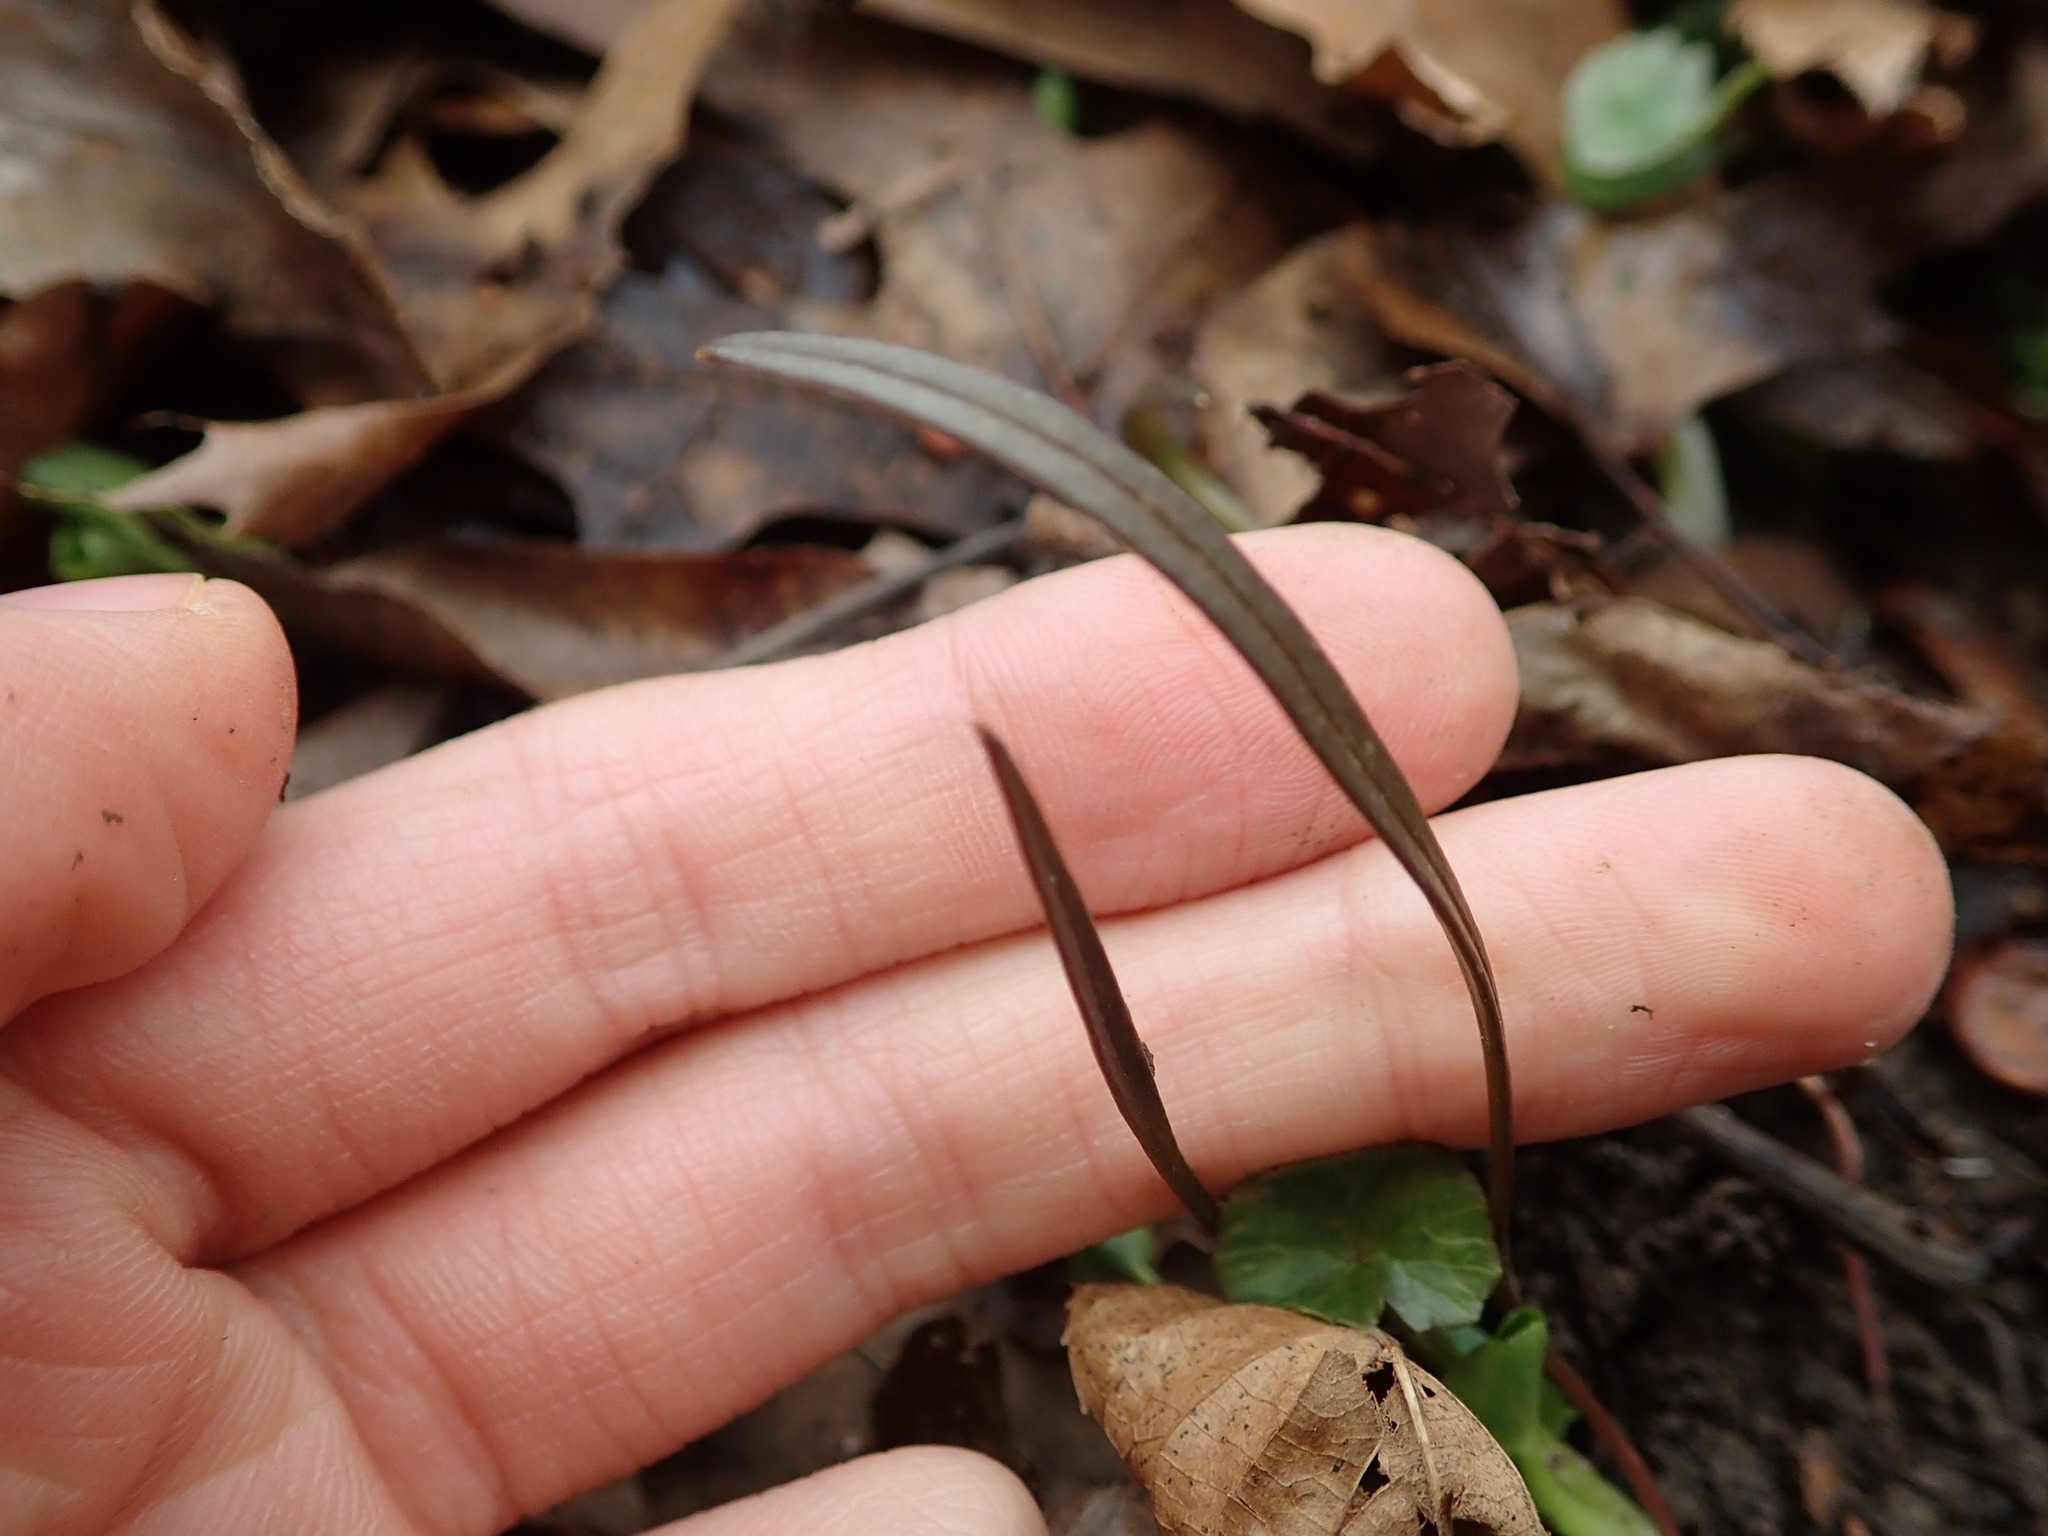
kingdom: Plantae
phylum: Tracheophyta
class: Magnoliopsida
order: Caryophyllales
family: Montiaceae
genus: Claytonia
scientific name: Claytonia virginica
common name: Virginia springbeauty
